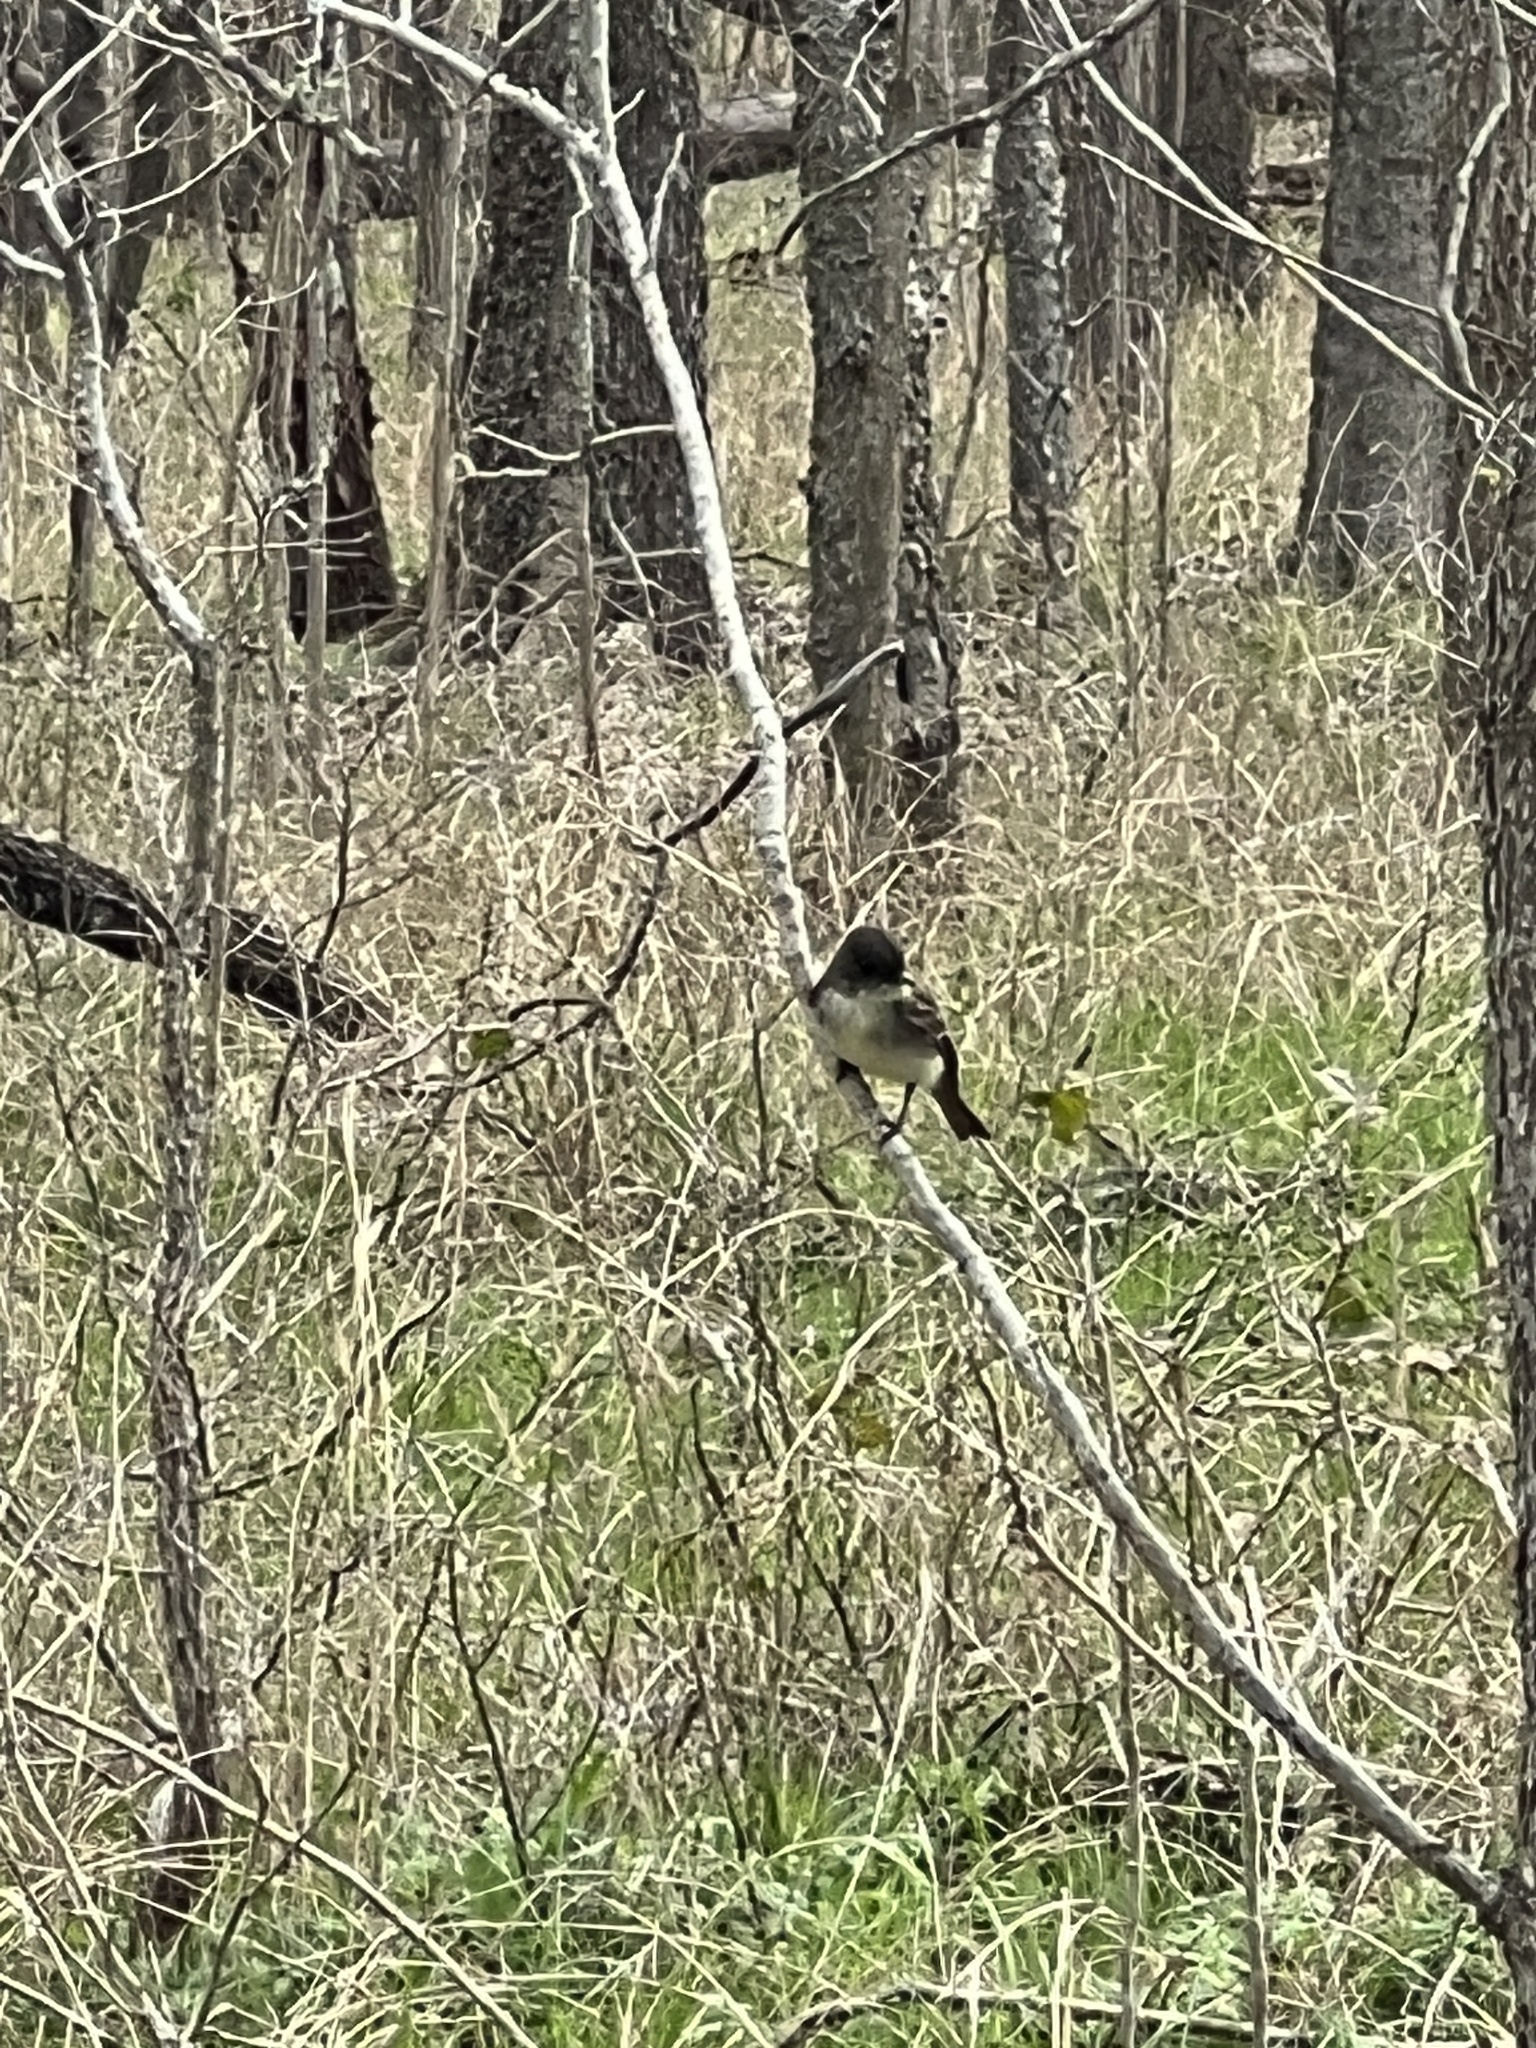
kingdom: Animalia
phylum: Chordata
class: Aves
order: Passeriformes
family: Tyrannidae
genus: Sayornis
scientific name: Sayornis phoebe
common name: Eastern phoebe
